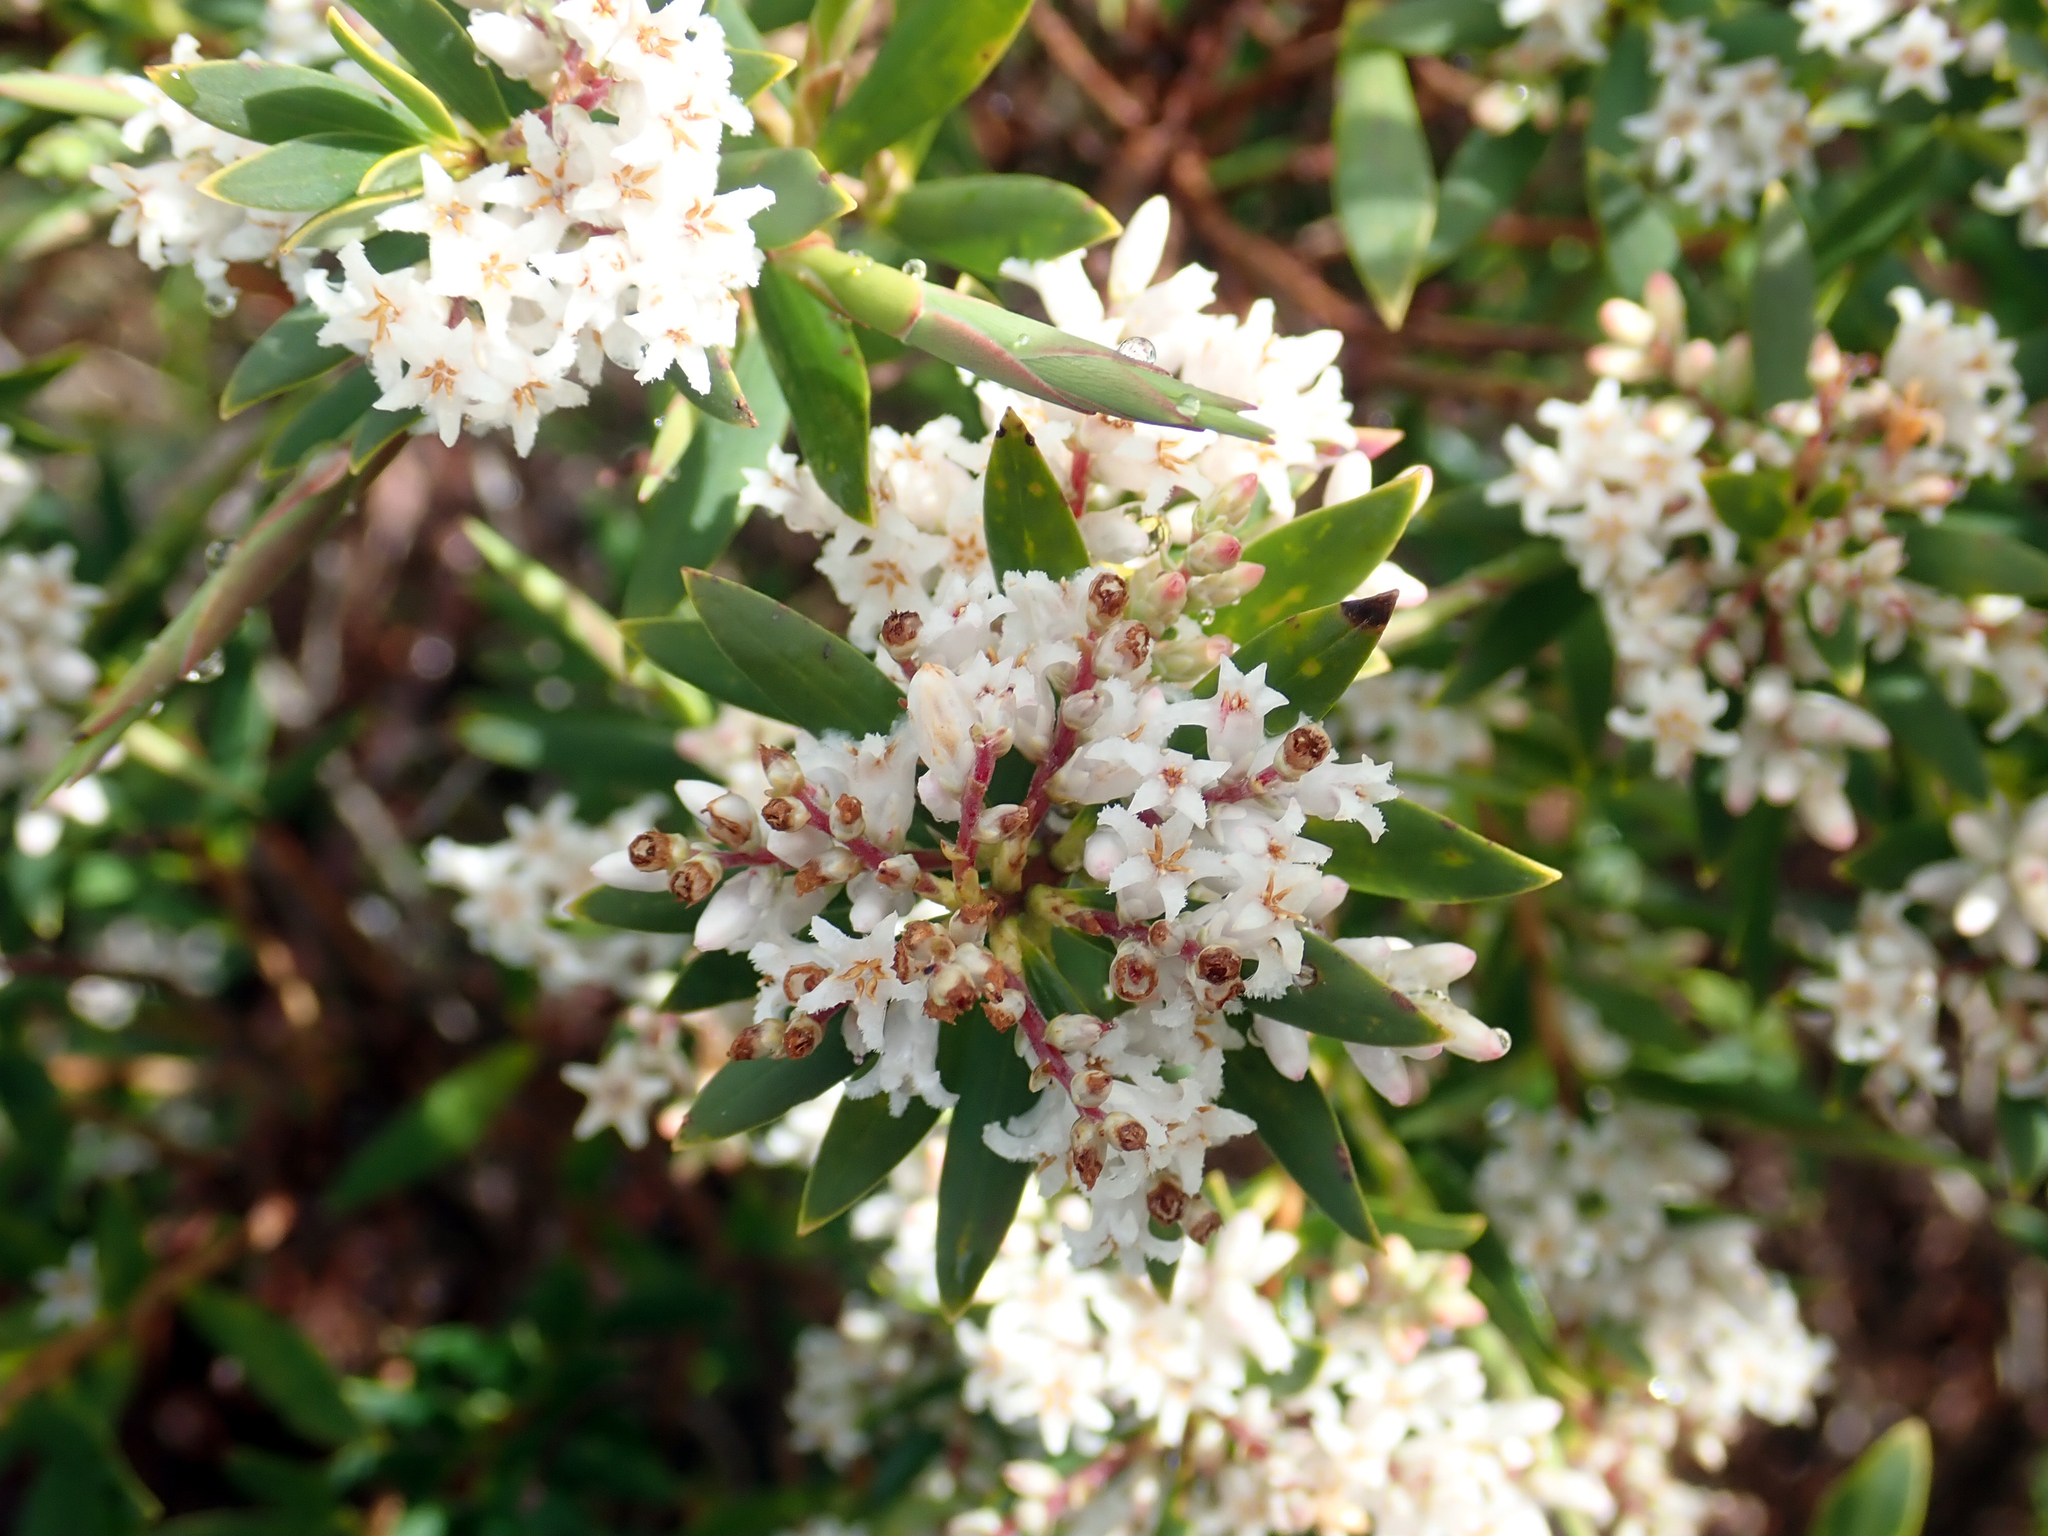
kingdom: Plantae
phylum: Tracheophyta
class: Magnoliopsida
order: Ericales
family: Ericaceae
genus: Leptecophylla
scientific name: Leptecophylla parvifolia
